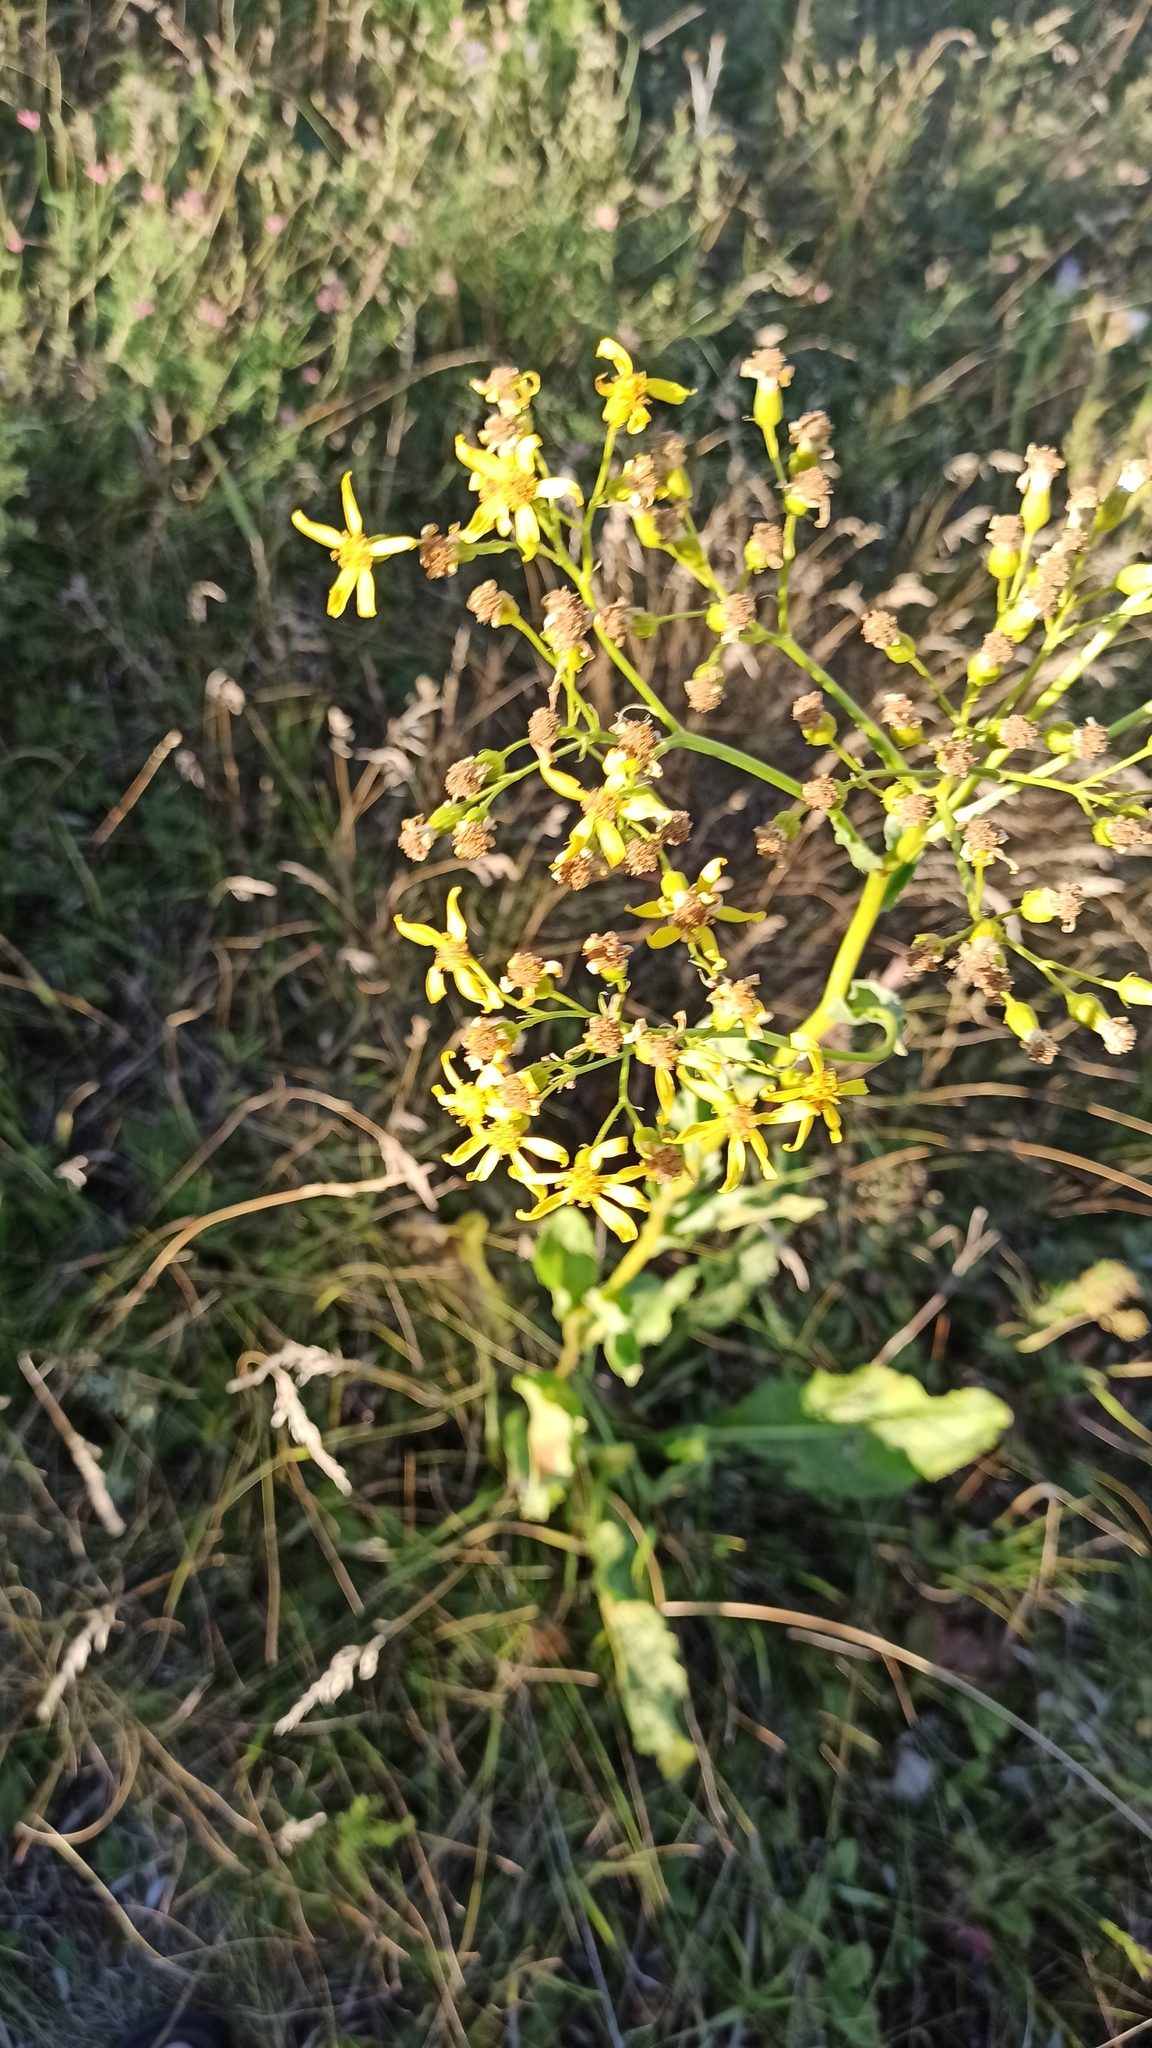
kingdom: Plantae
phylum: Tracheophyta
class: Magnoliopsida
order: Asterales
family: Asteraceae
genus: Senecio
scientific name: Senecio doria
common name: Golden ragwort
